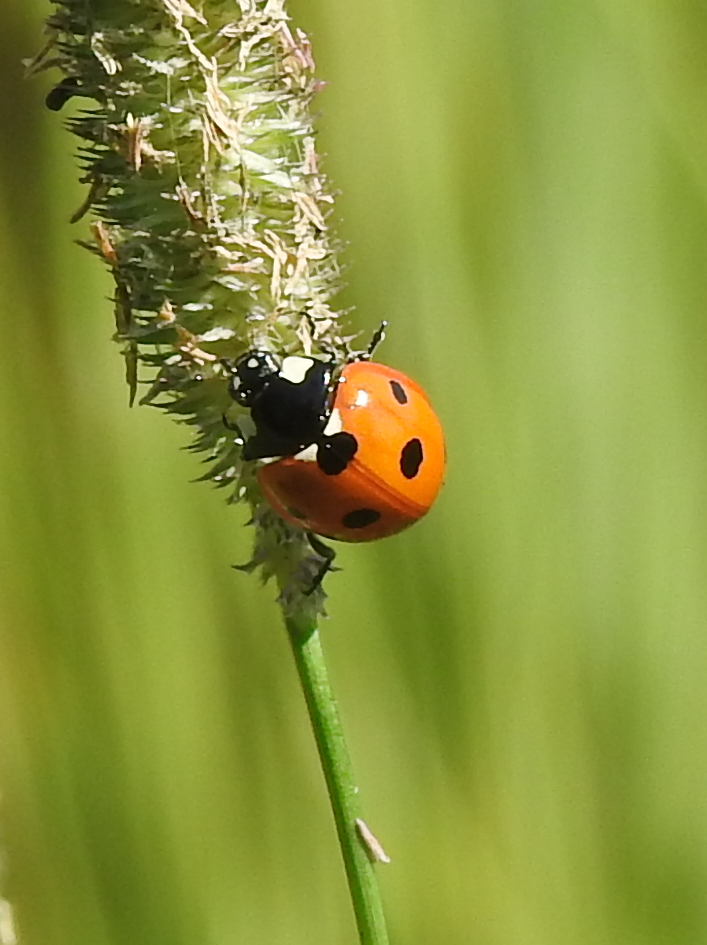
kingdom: Animalia
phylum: Arthropoda
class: Insecta
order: Coleoptera
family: Coccinellidae
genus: Coccinella
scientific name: Coccinella septempunctata
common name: Sevenspotted lady beetle
